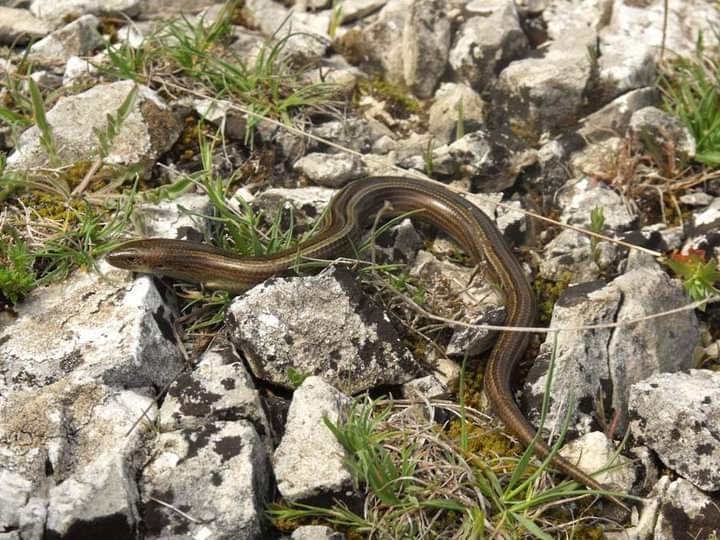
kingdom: Animalia
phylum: Chordata
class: Squamata
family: Scincidae
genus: Chalcides
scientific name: Chalcides chalcides
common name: Italian three-toed skink
